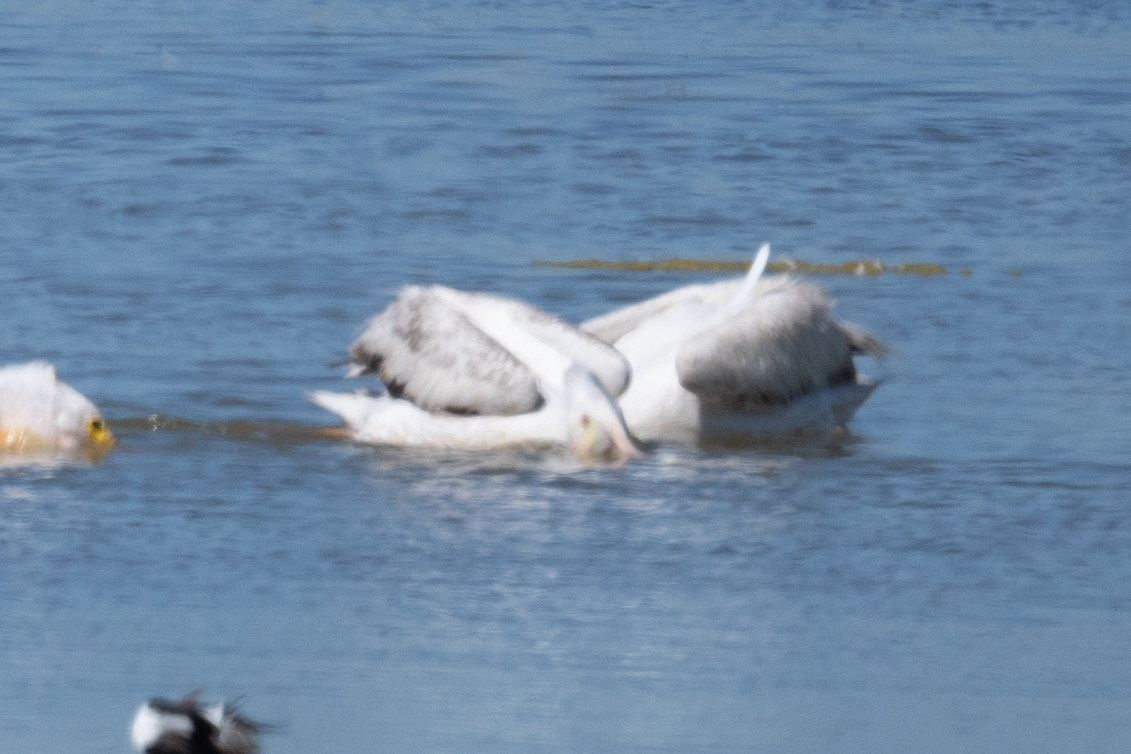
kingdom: Animalia
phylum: Chordata
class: Aves
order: Pelecaniformes
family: Pelecanidae
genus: Pelecanus
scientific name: Pelecanus erythrorhynchos
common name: American white pelican
